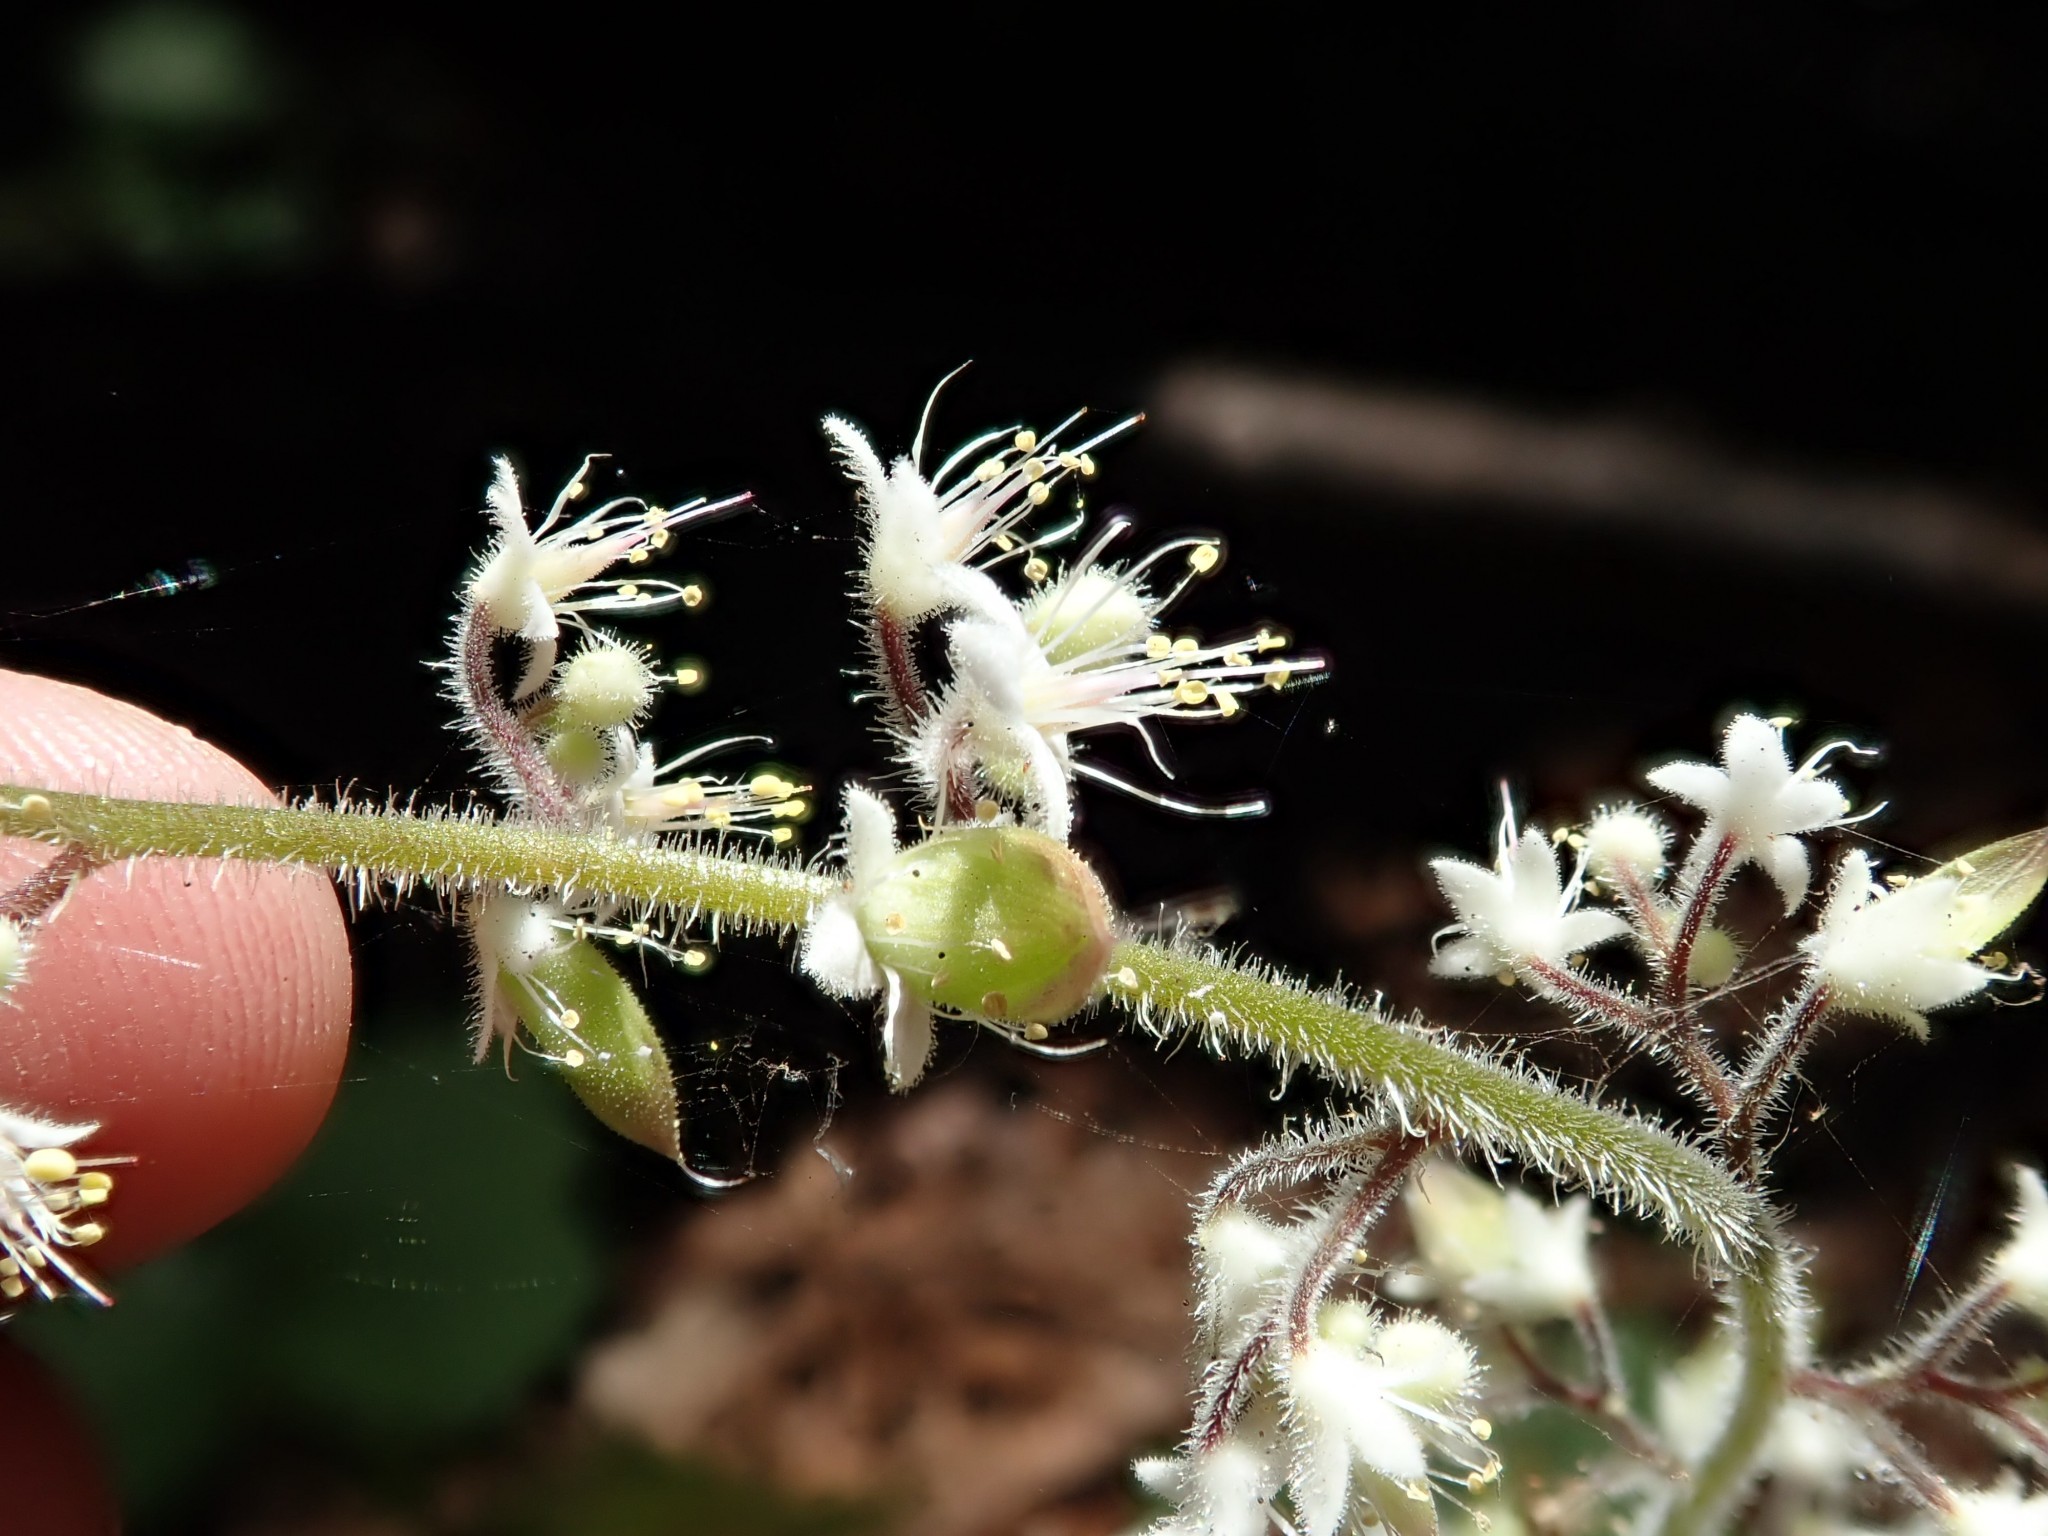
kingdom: Plantae
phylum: Tracheophyta
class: Magnoliopsida
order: Saxifragales
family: Saxifragaceae
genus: Tiarella
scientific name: Tiarella trifoliata
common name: Sugar-scoop
